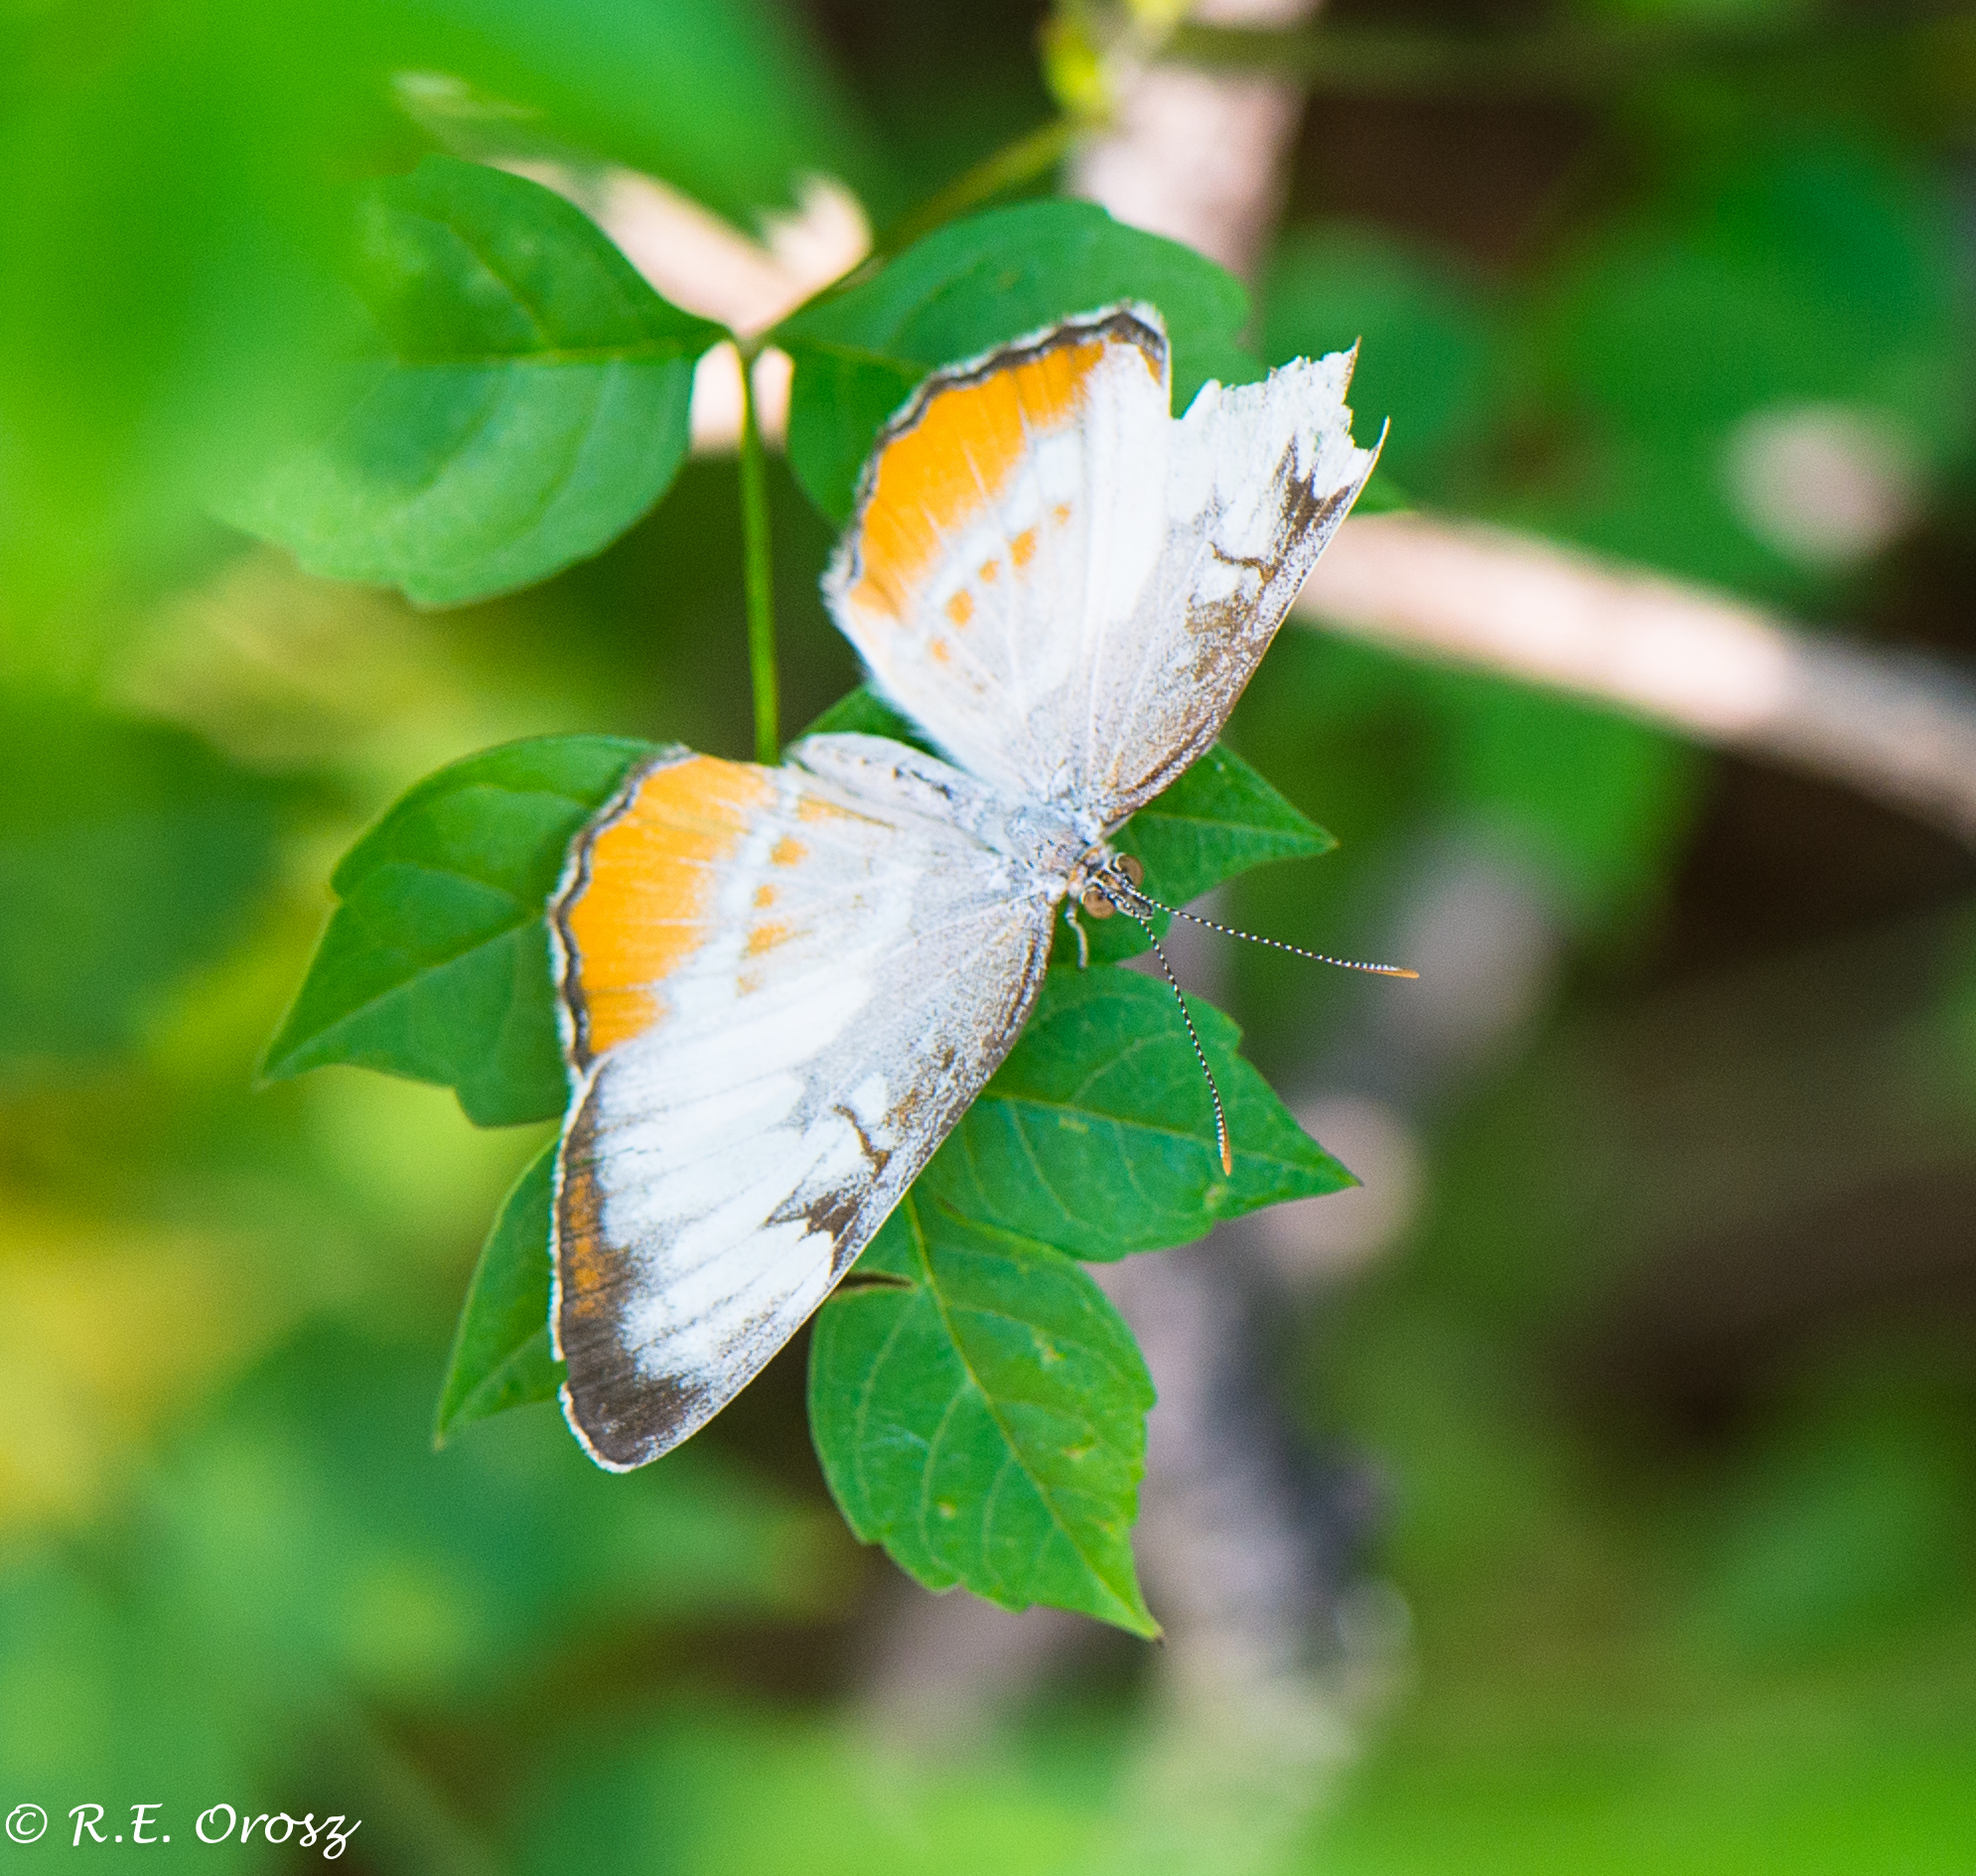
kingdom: Animalia
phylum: Arthropoda
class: Insecta
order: Lepidoptera
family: Nymphalidae
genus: Mestra
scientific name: Mestra amymone
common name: Common mestra
